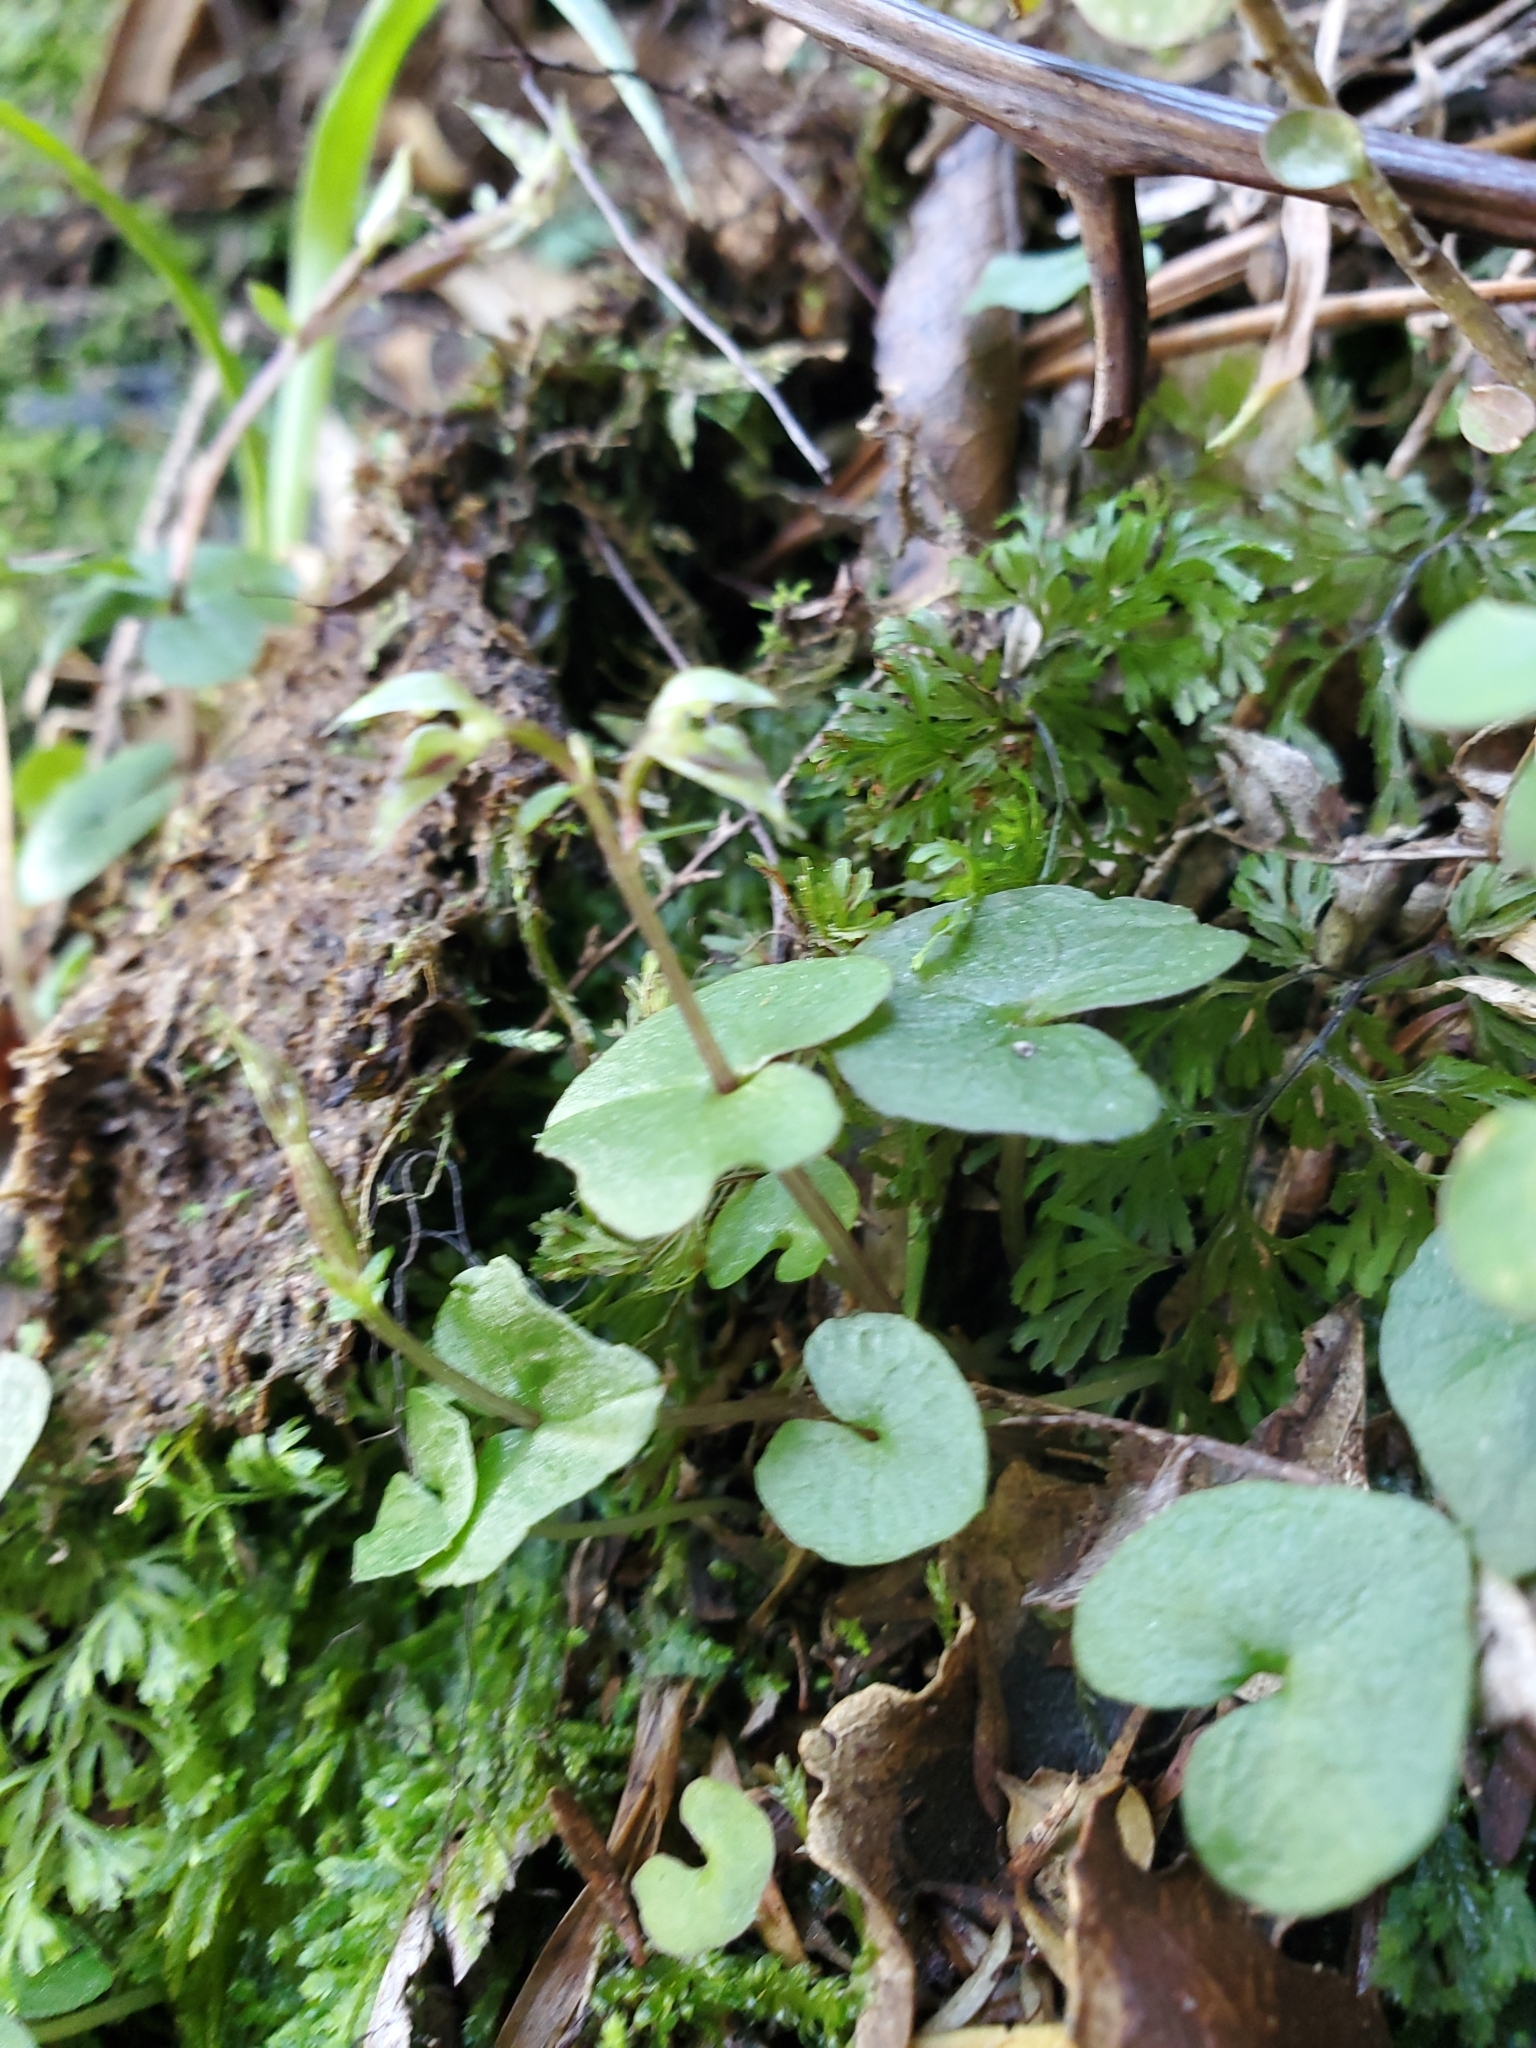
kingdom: Plantae
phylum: Tracheophyta
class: Liliopsida
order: Asparagales
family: Orchidaceae
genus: Acianthus
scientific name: Acianthus sinclairii
